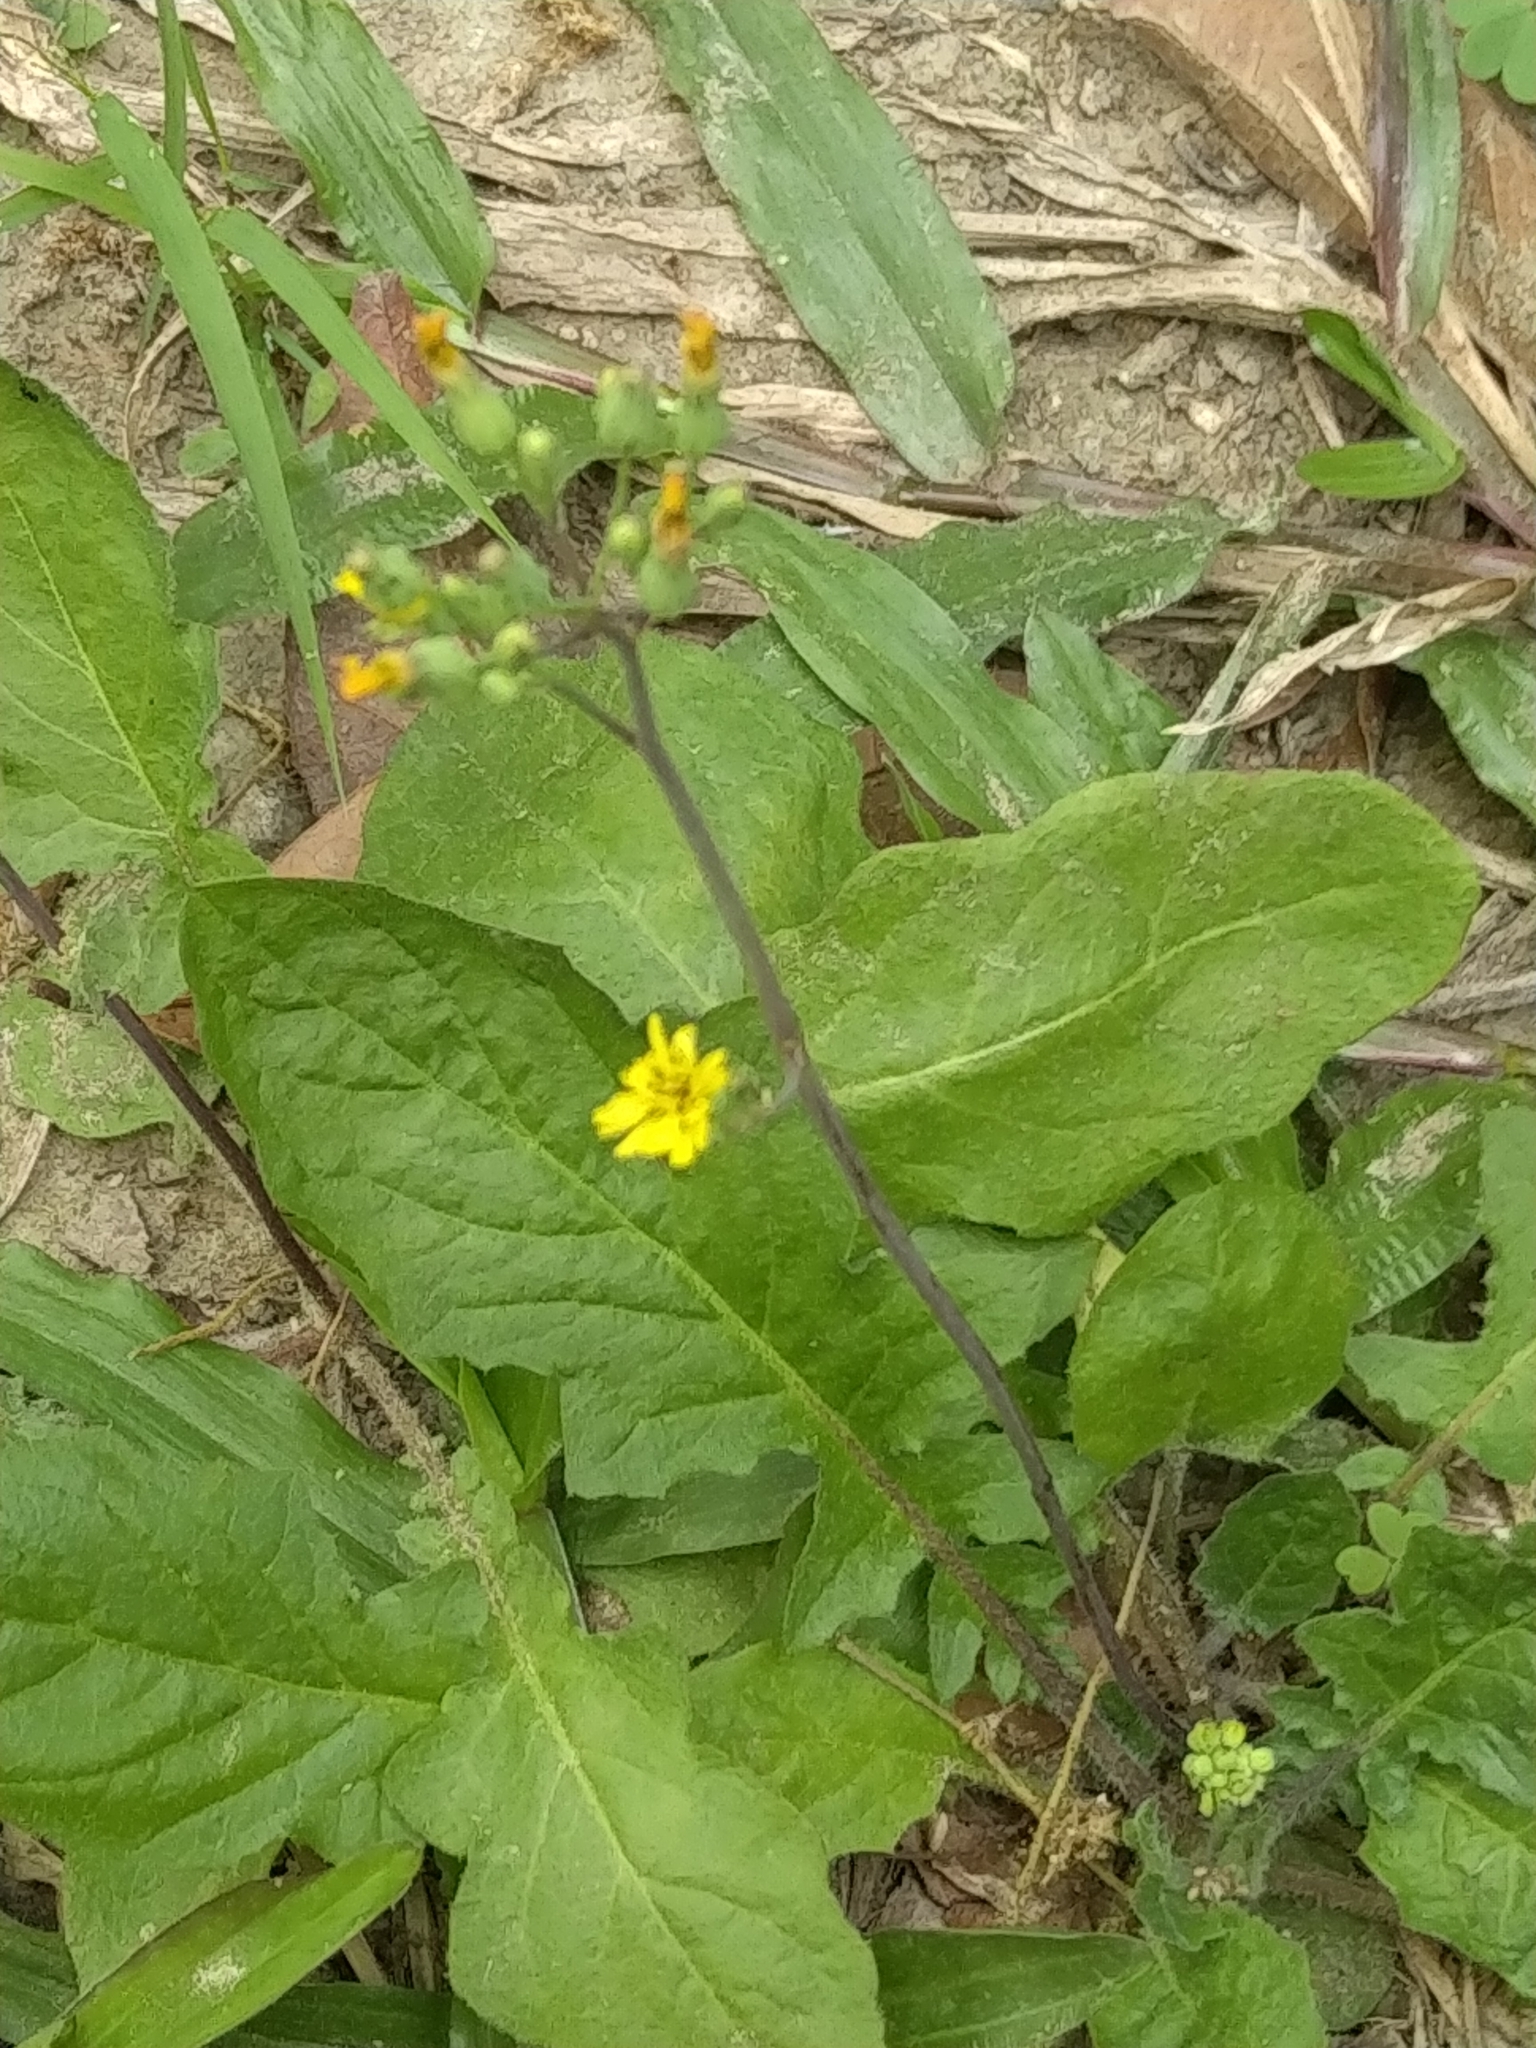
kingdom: Plantae
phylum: Tracheophyta
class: Magnoliopsida
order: Asterales
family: Asteraceae
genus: Youngia
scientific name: Youngia japonica
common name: Oriental false hawksbeard
